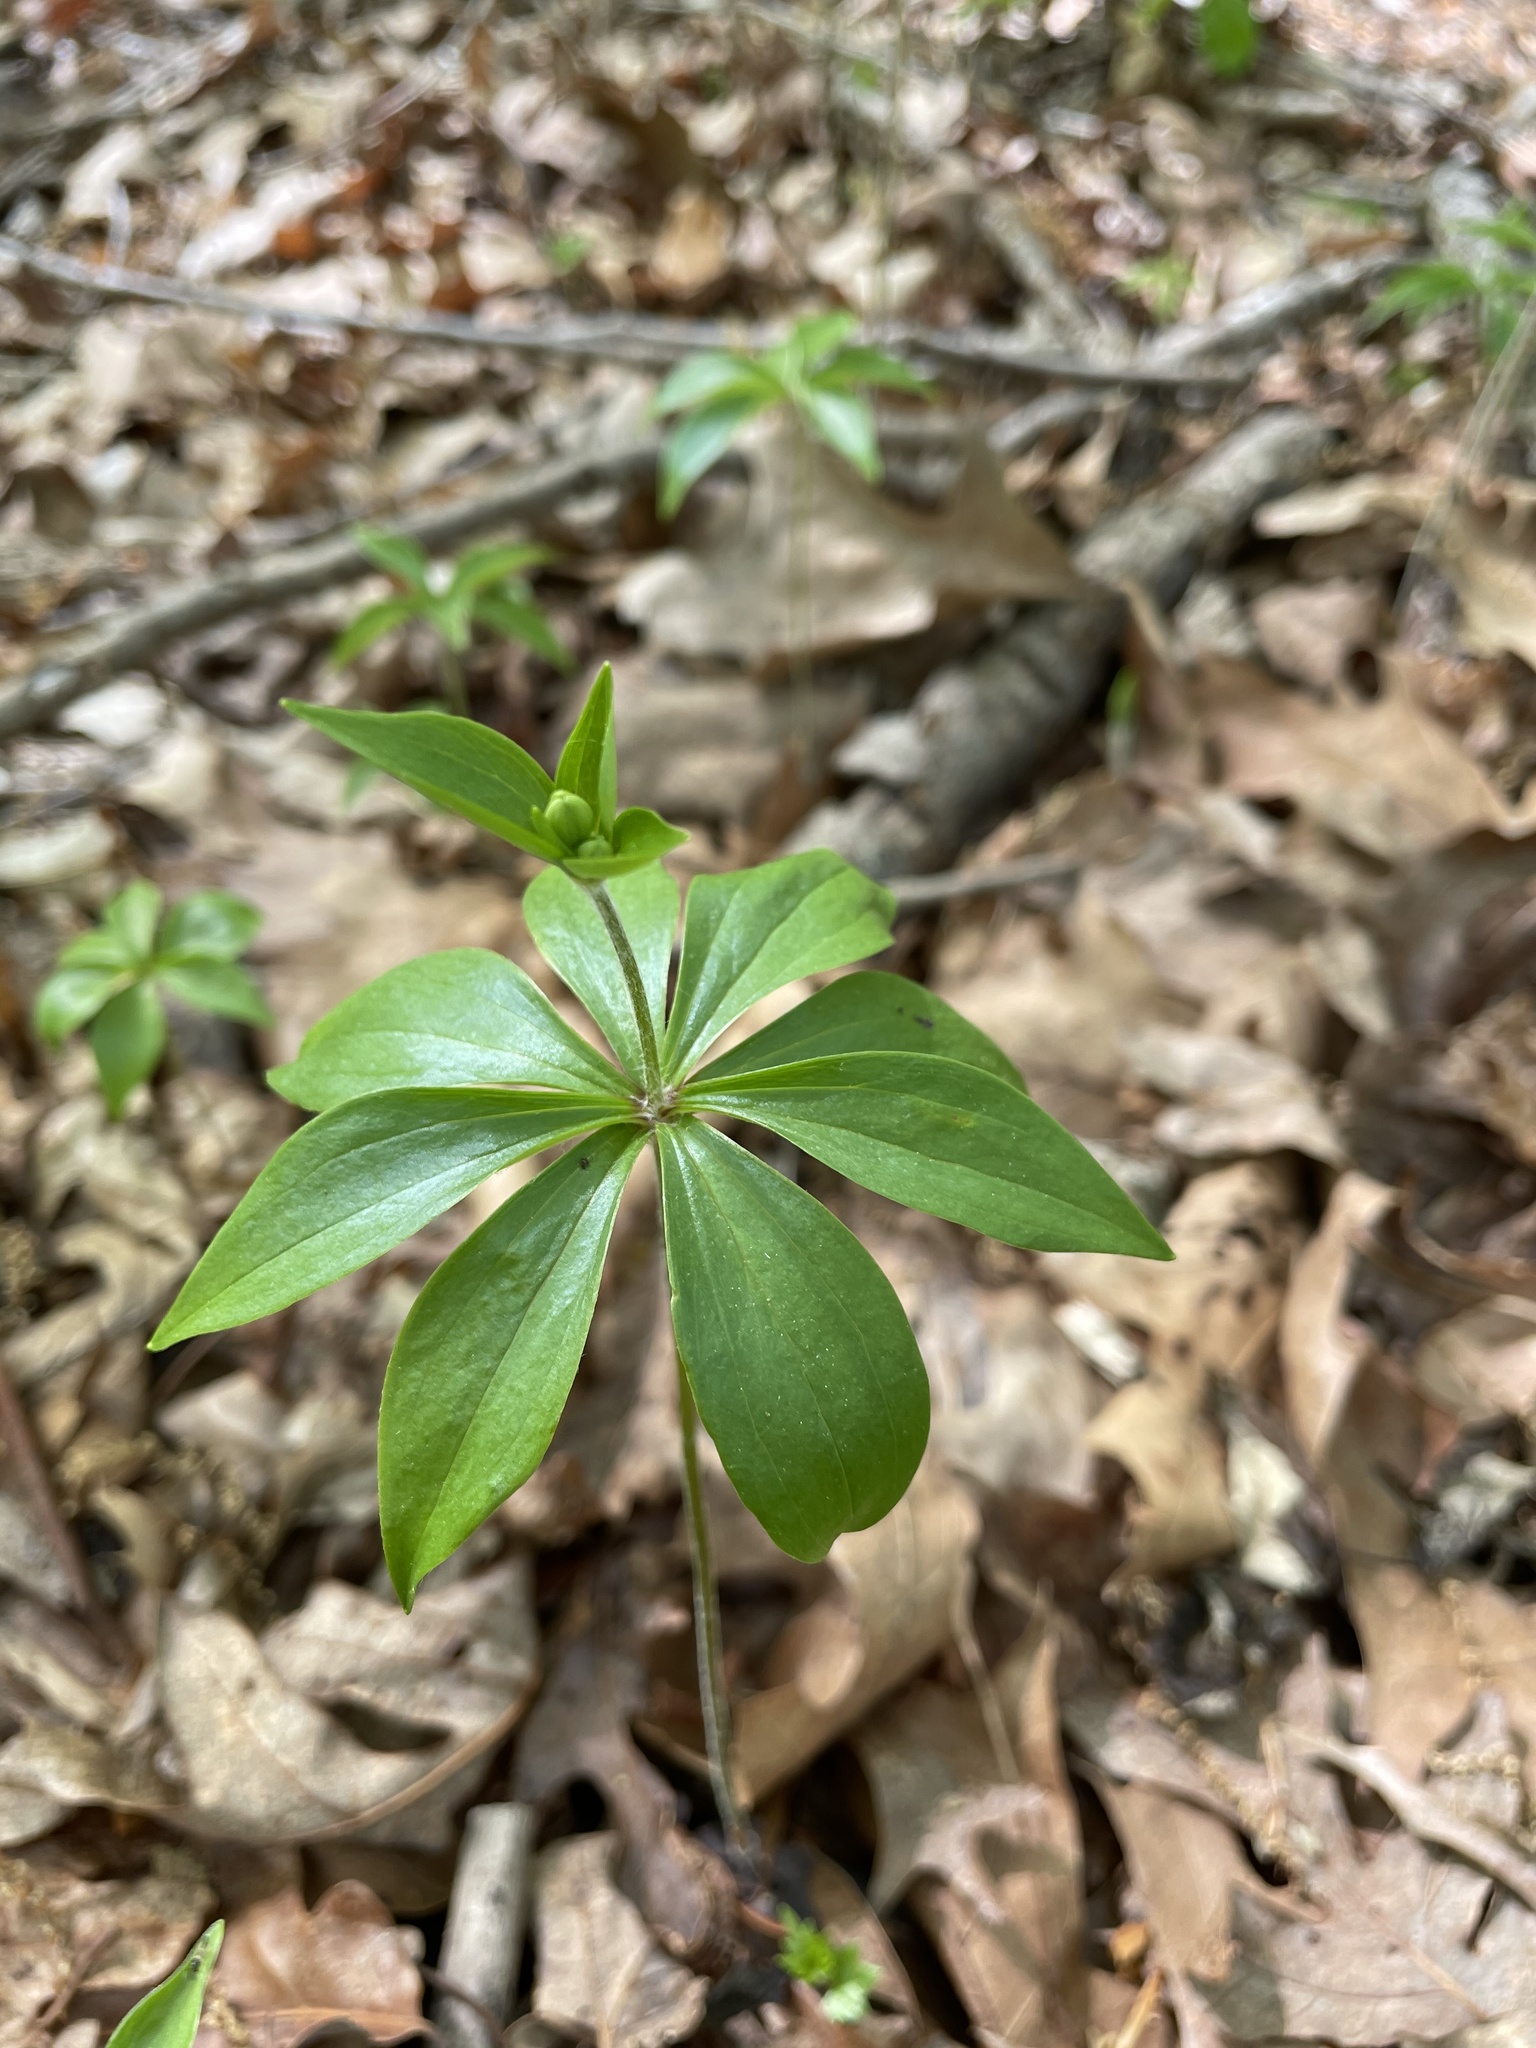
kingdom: Plantae
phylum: Tracheophyta
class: Liliopsida
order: Liliales
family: Liliaceae
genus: Medeola
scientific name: Medeola virginiana
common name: Indian cucumber-root
